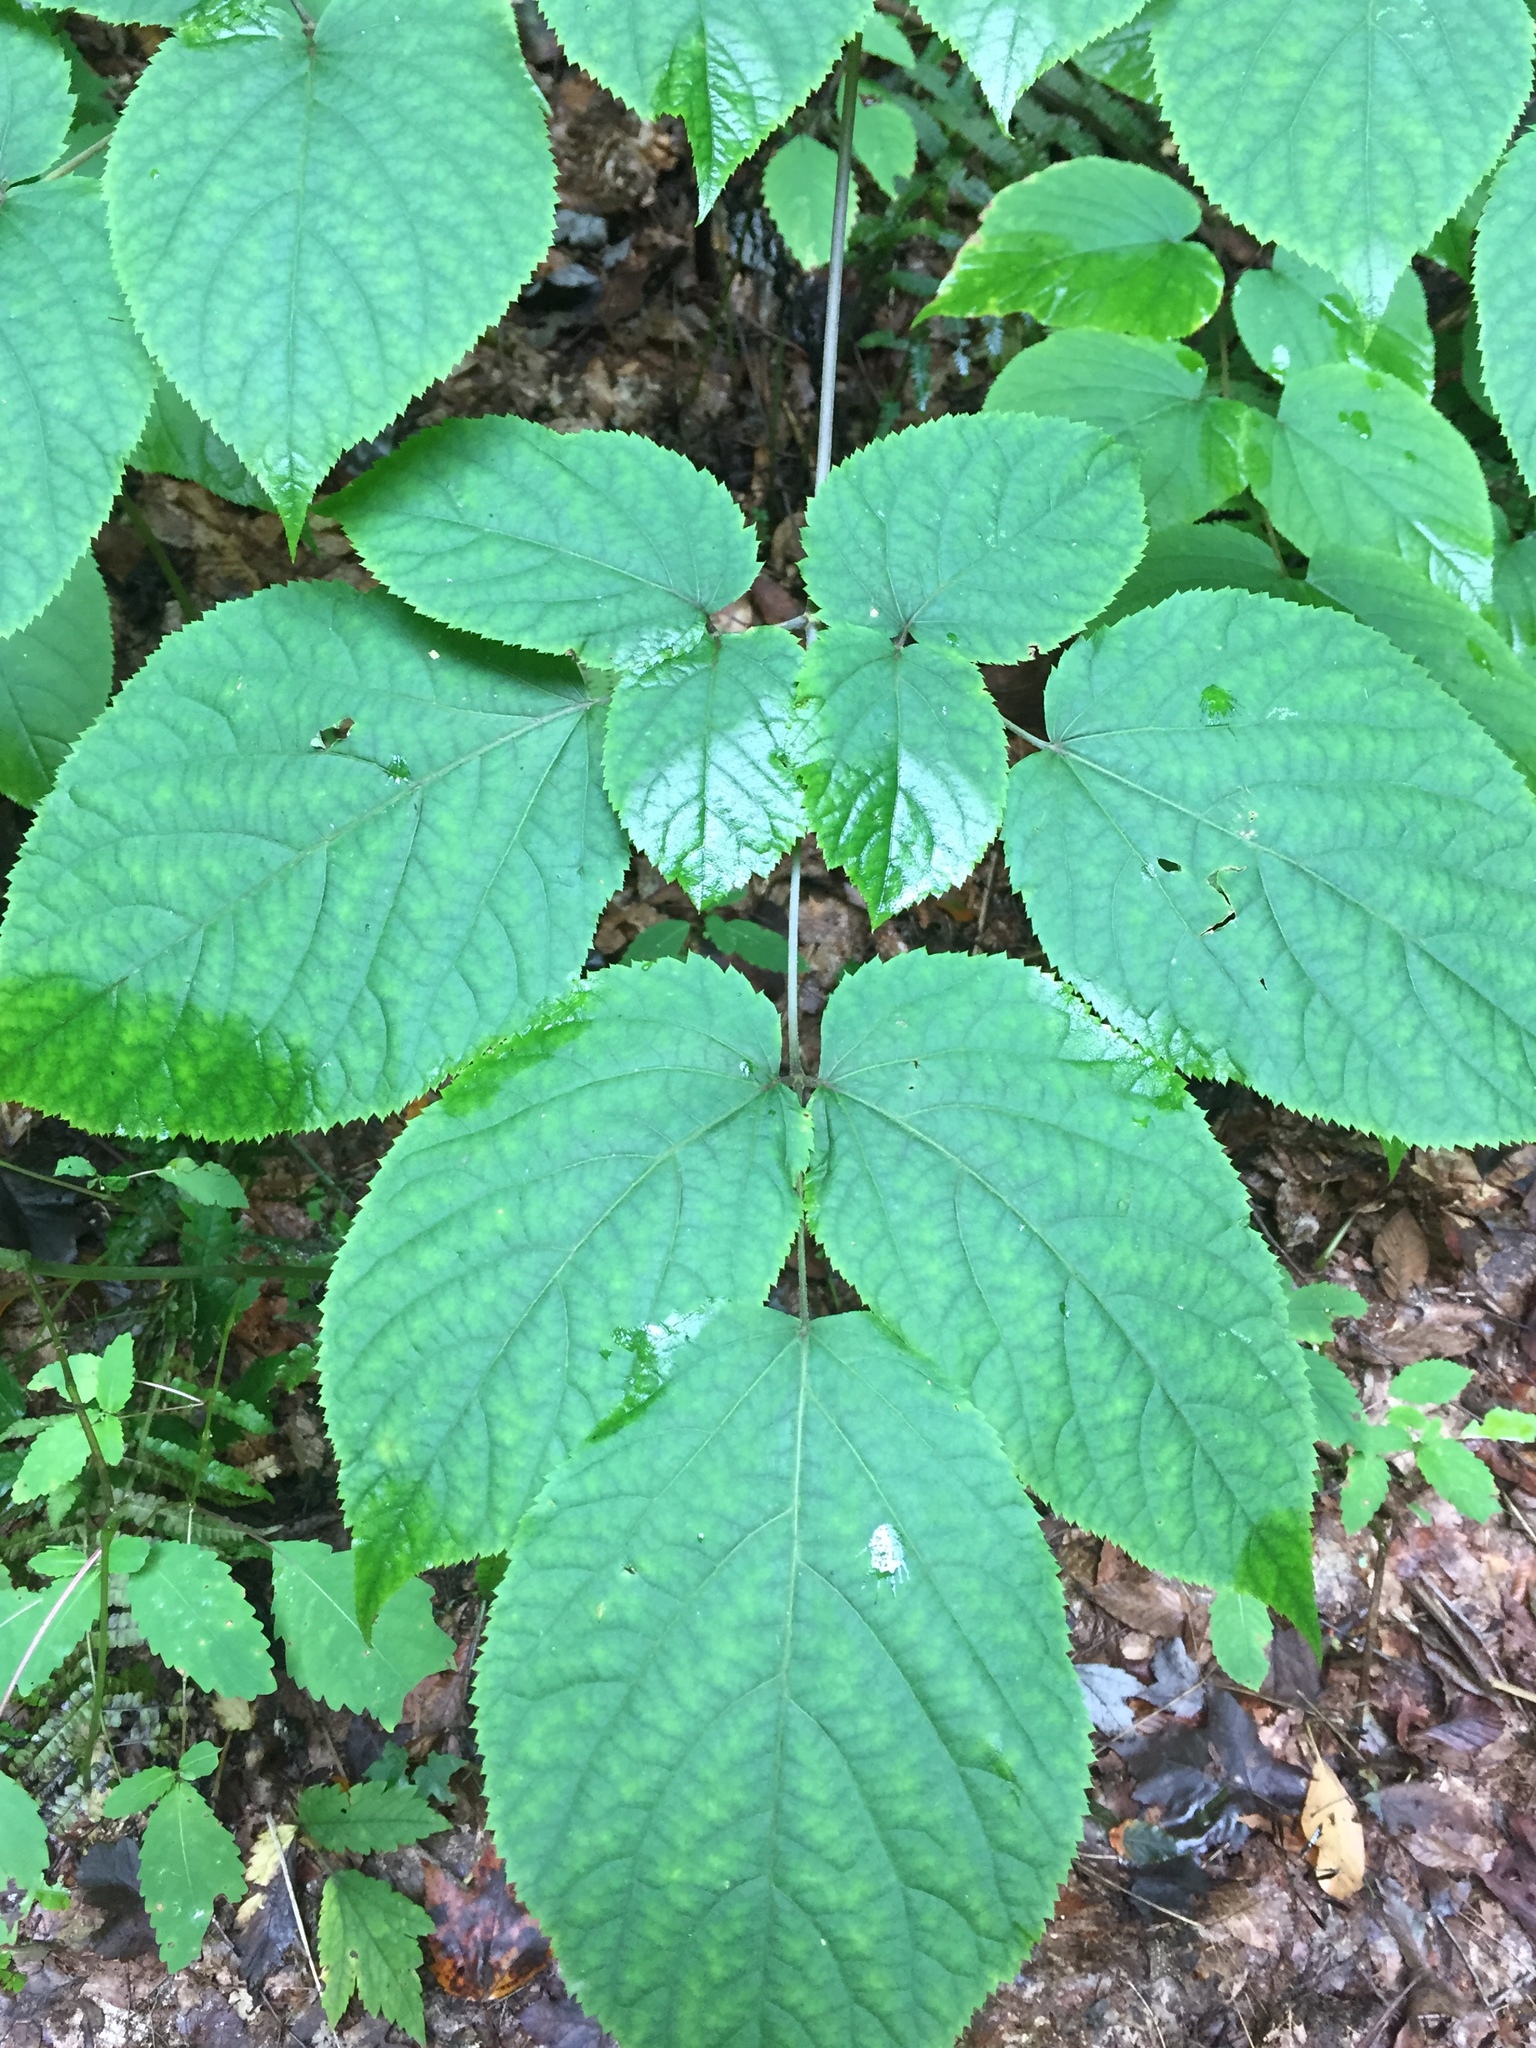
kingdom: Plantae
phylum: Tracheophyta
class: Magnoliopsida
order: Apiales
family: Araliaceae
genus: Aralia
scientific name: Aralia racemosa
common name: American-spikenard
